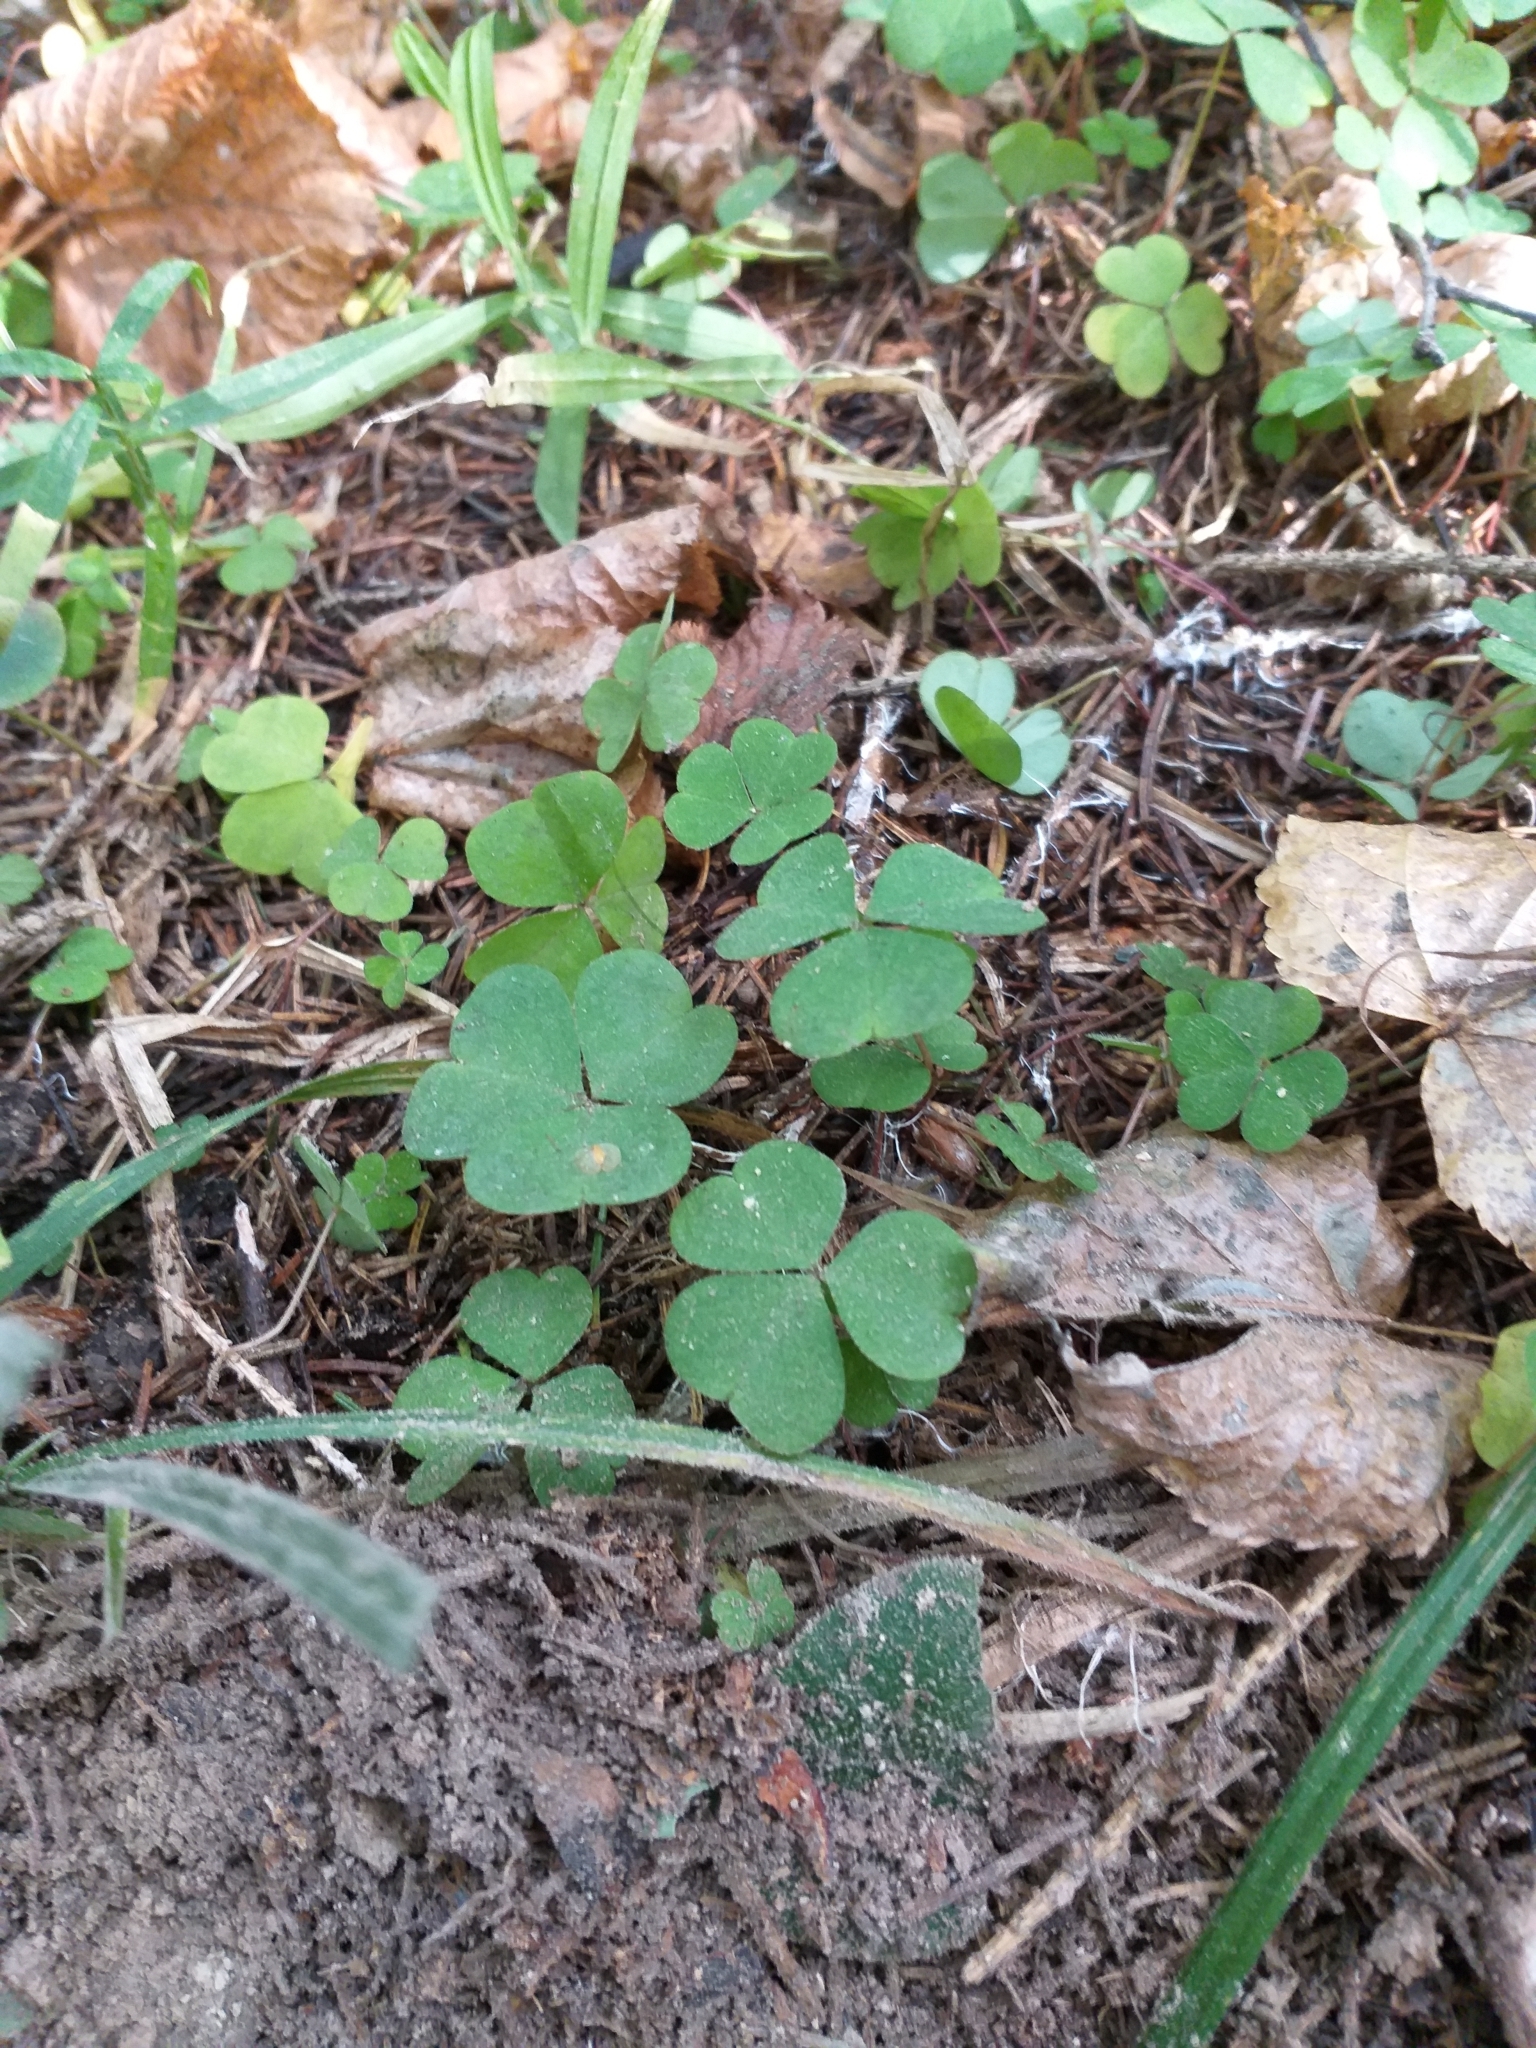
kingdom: Plantae
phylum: Tracheophyta
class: Magnoliopsida
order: Oxalidales
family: Oxalidaceae
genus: Oxalis
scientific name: Oxalis acetosella
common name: Wood-sorrel
